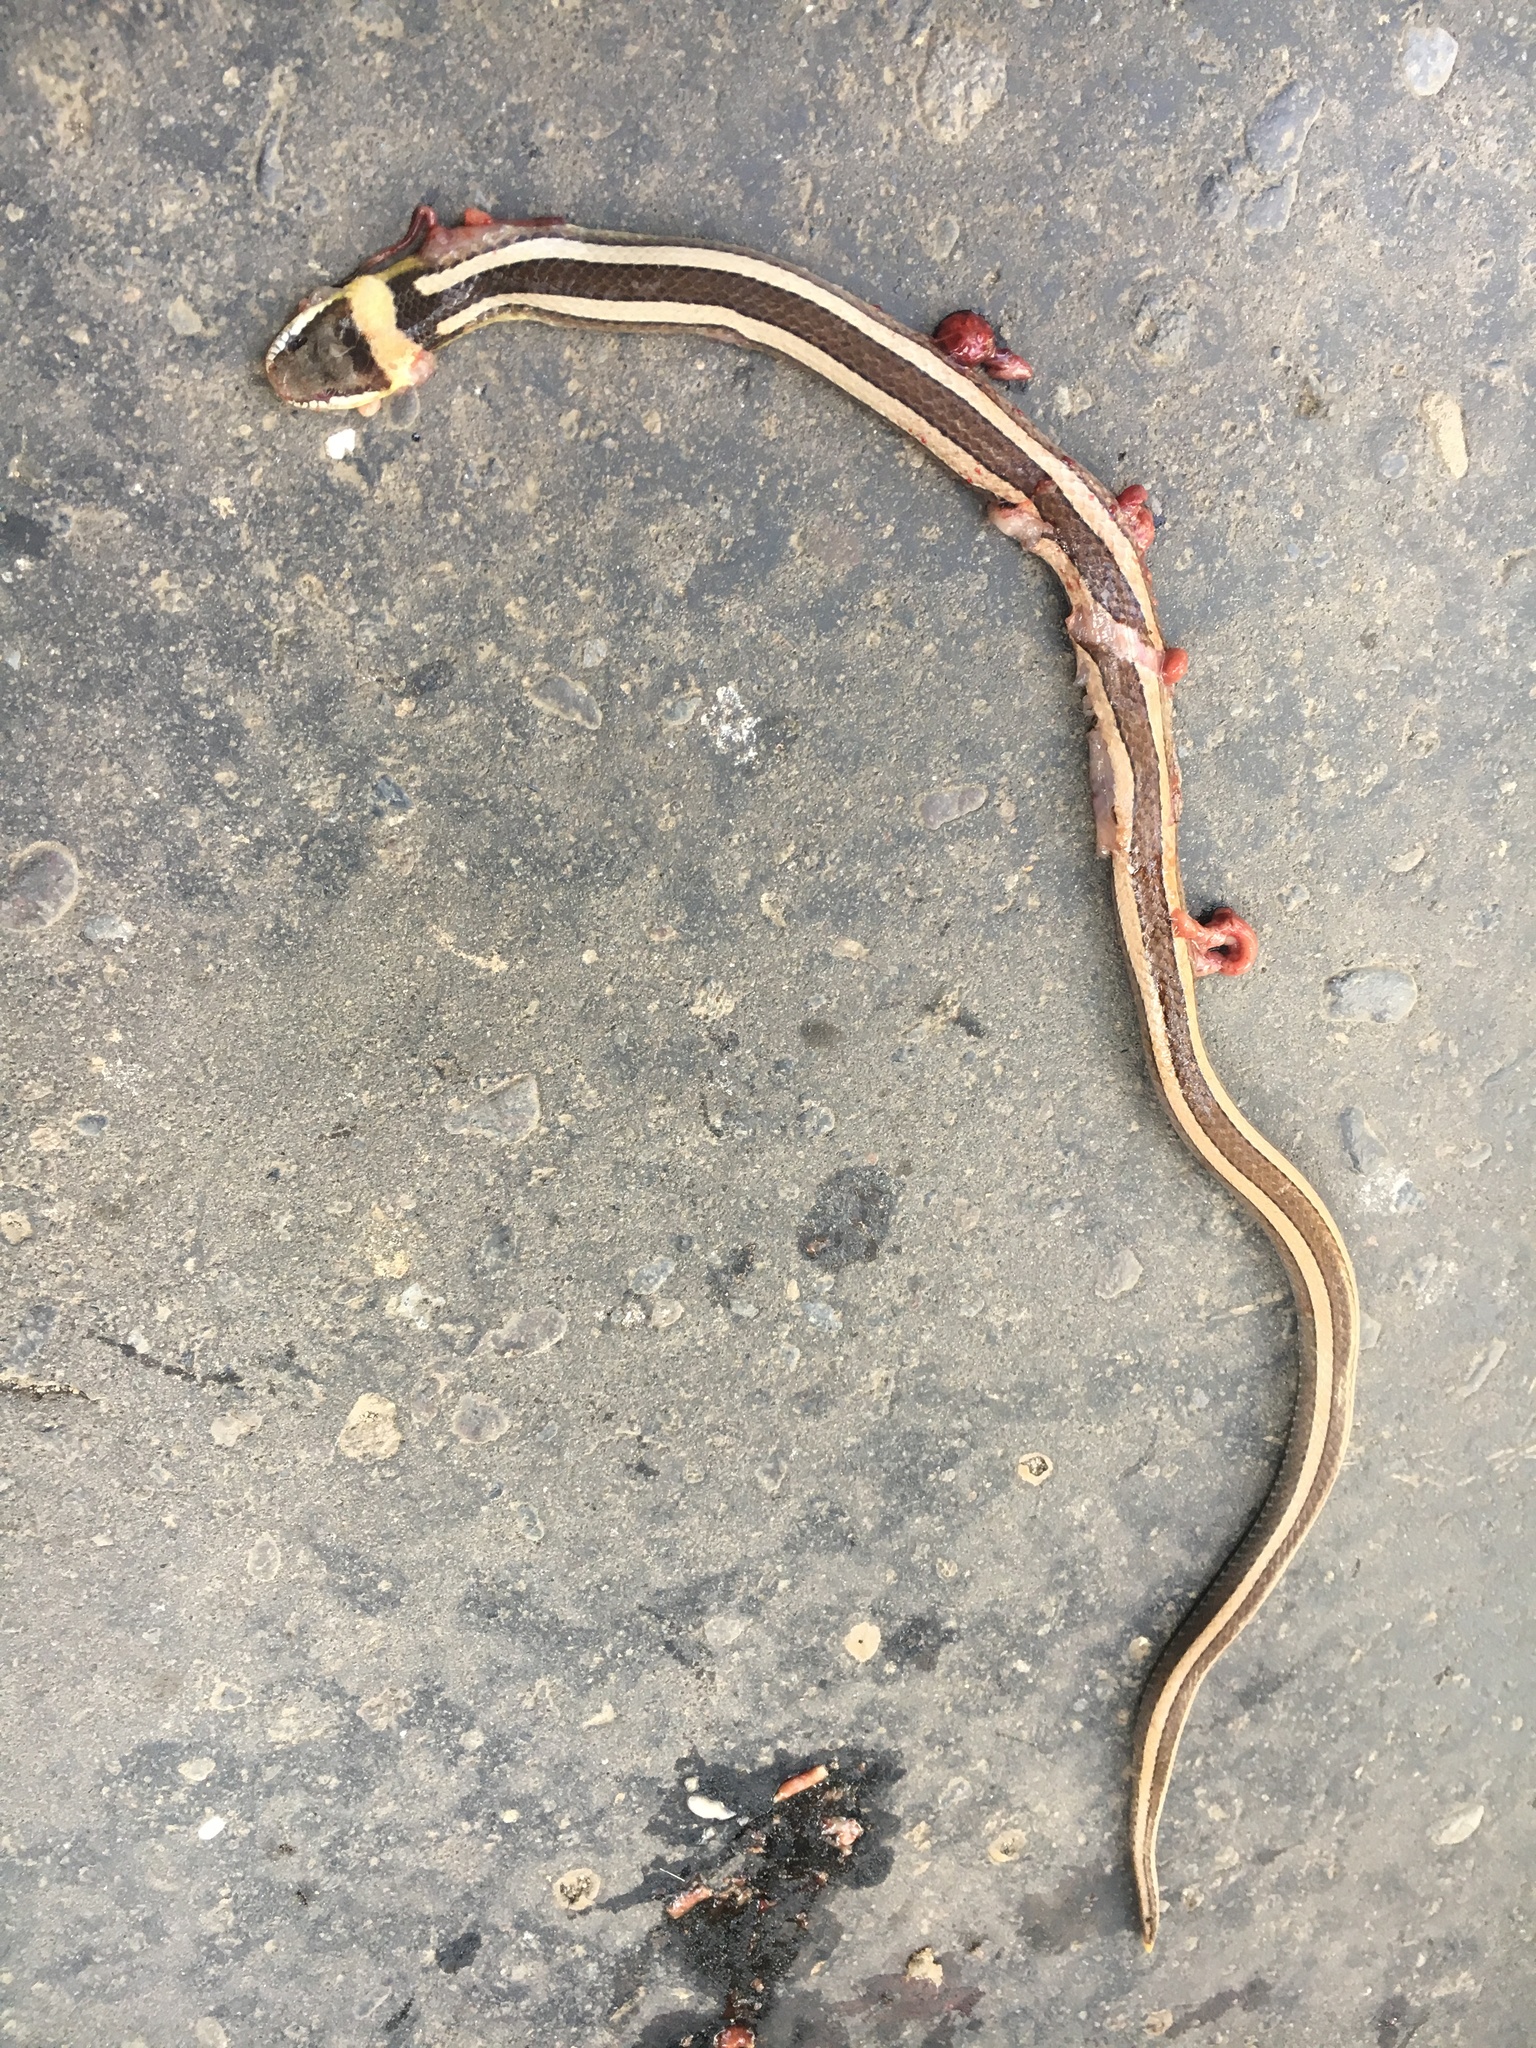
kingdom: Animalia
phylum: Chordata
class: Squamata
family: Colubridae
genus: Sibynophis
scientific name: Sibynophis geminatus
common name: Boie's many-tooth snake
